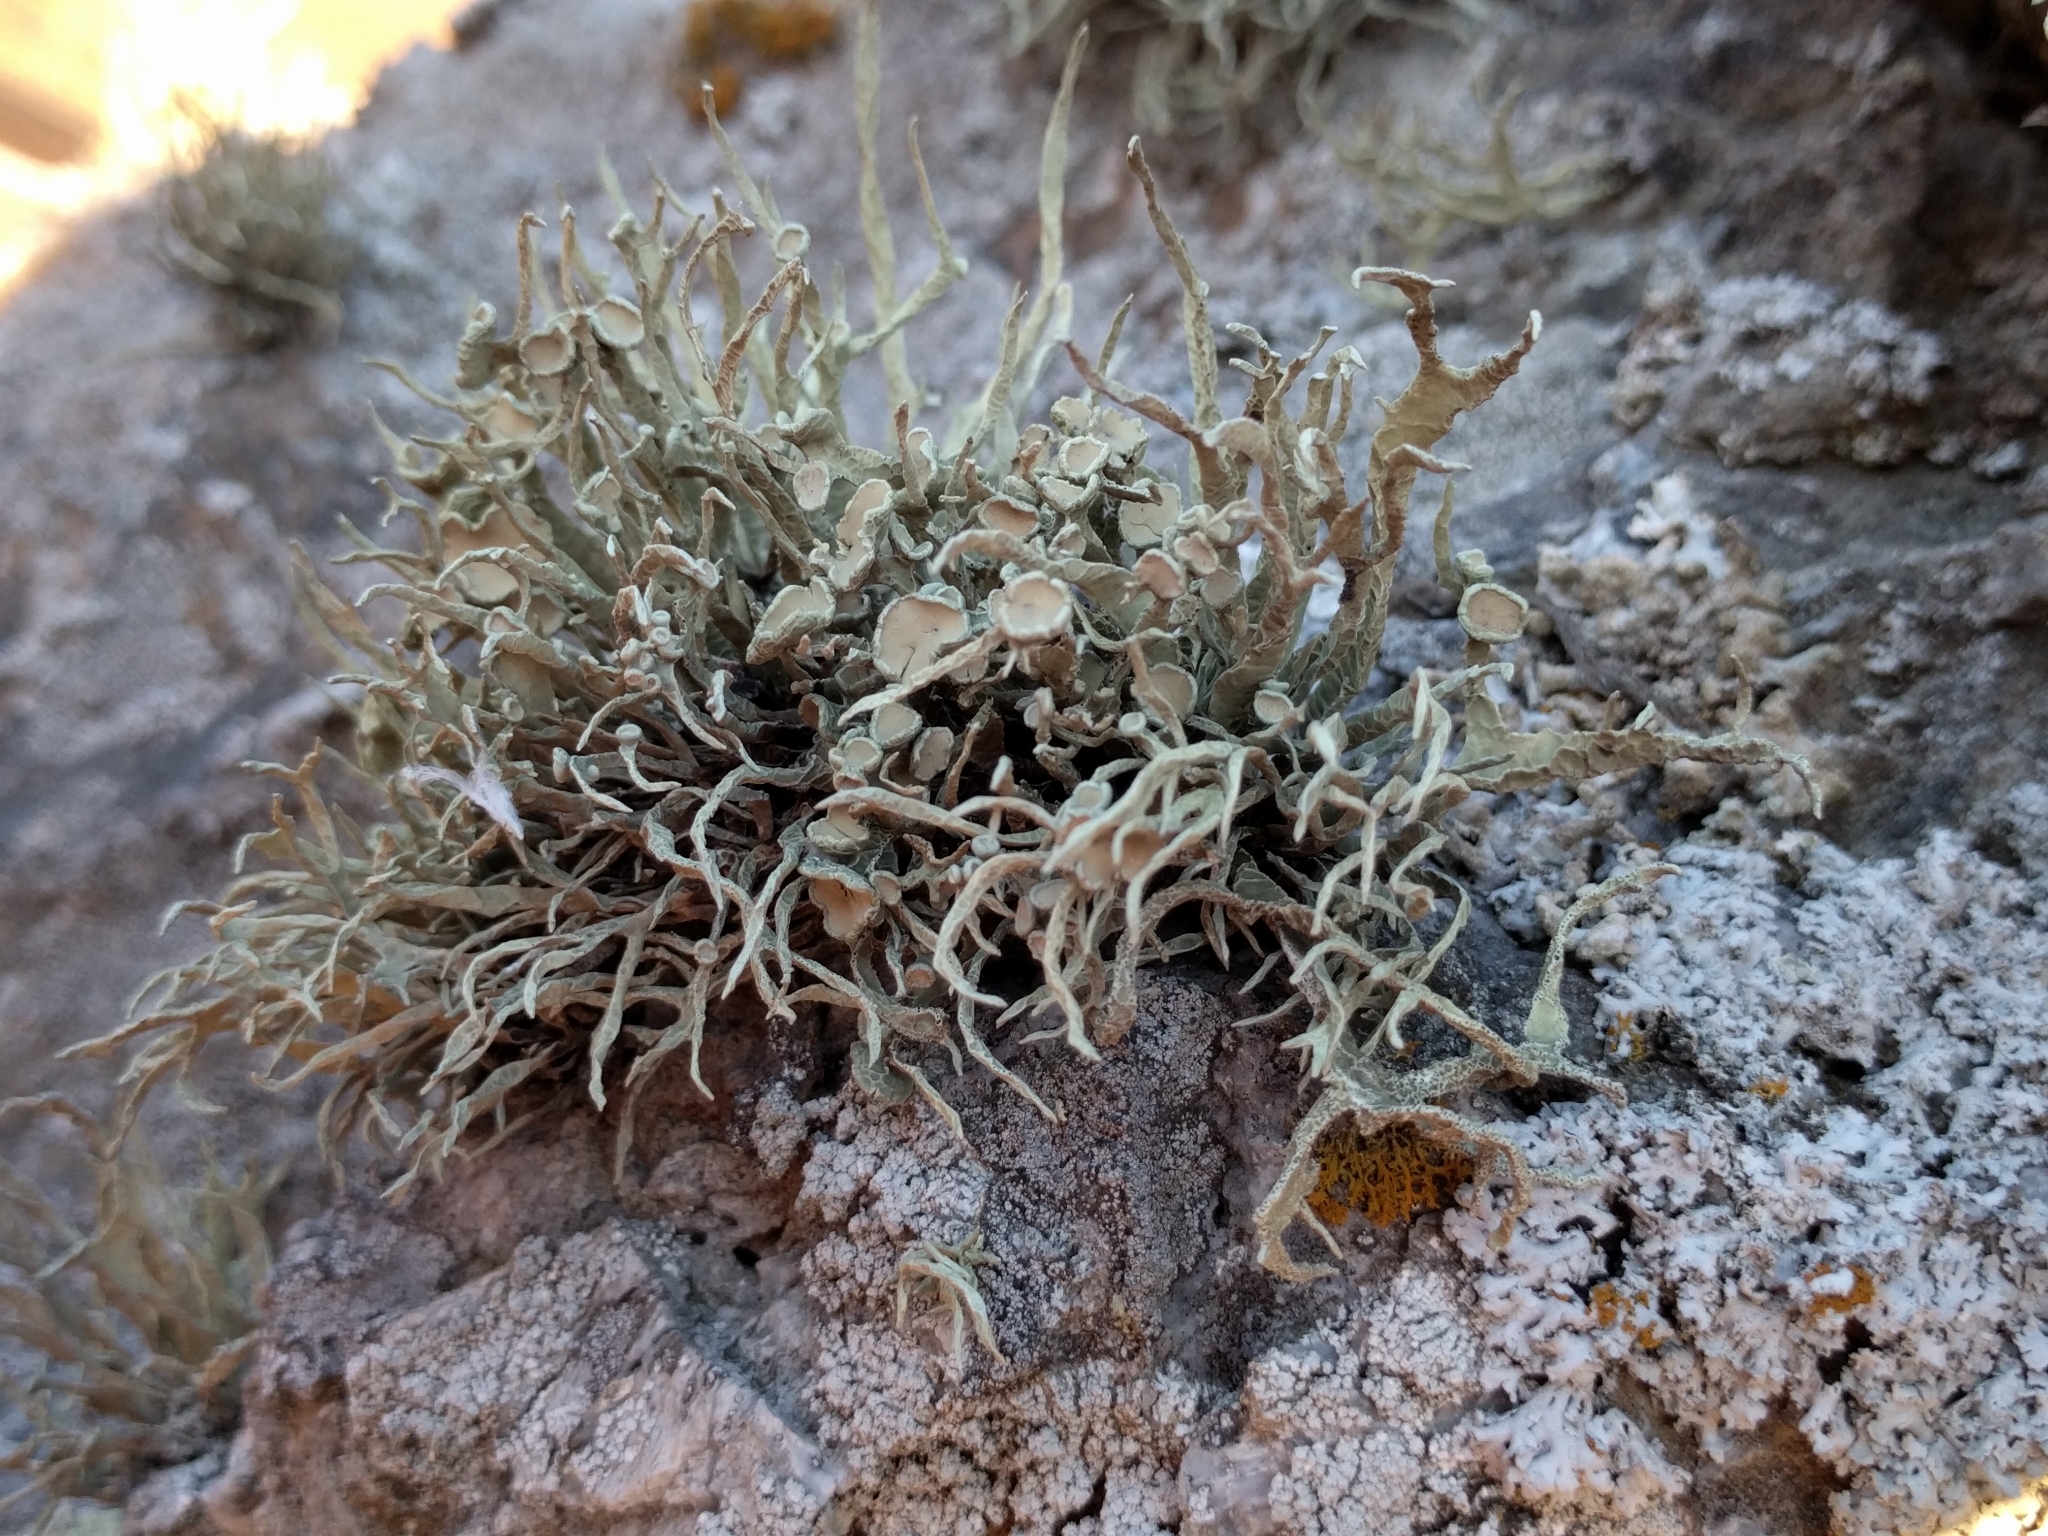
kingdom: Fungi
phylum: Ascomycota
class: Lecanoromycetes
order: Lecanorales
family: Ramalinaceae
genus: Niebla
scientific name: Niebla homalea
